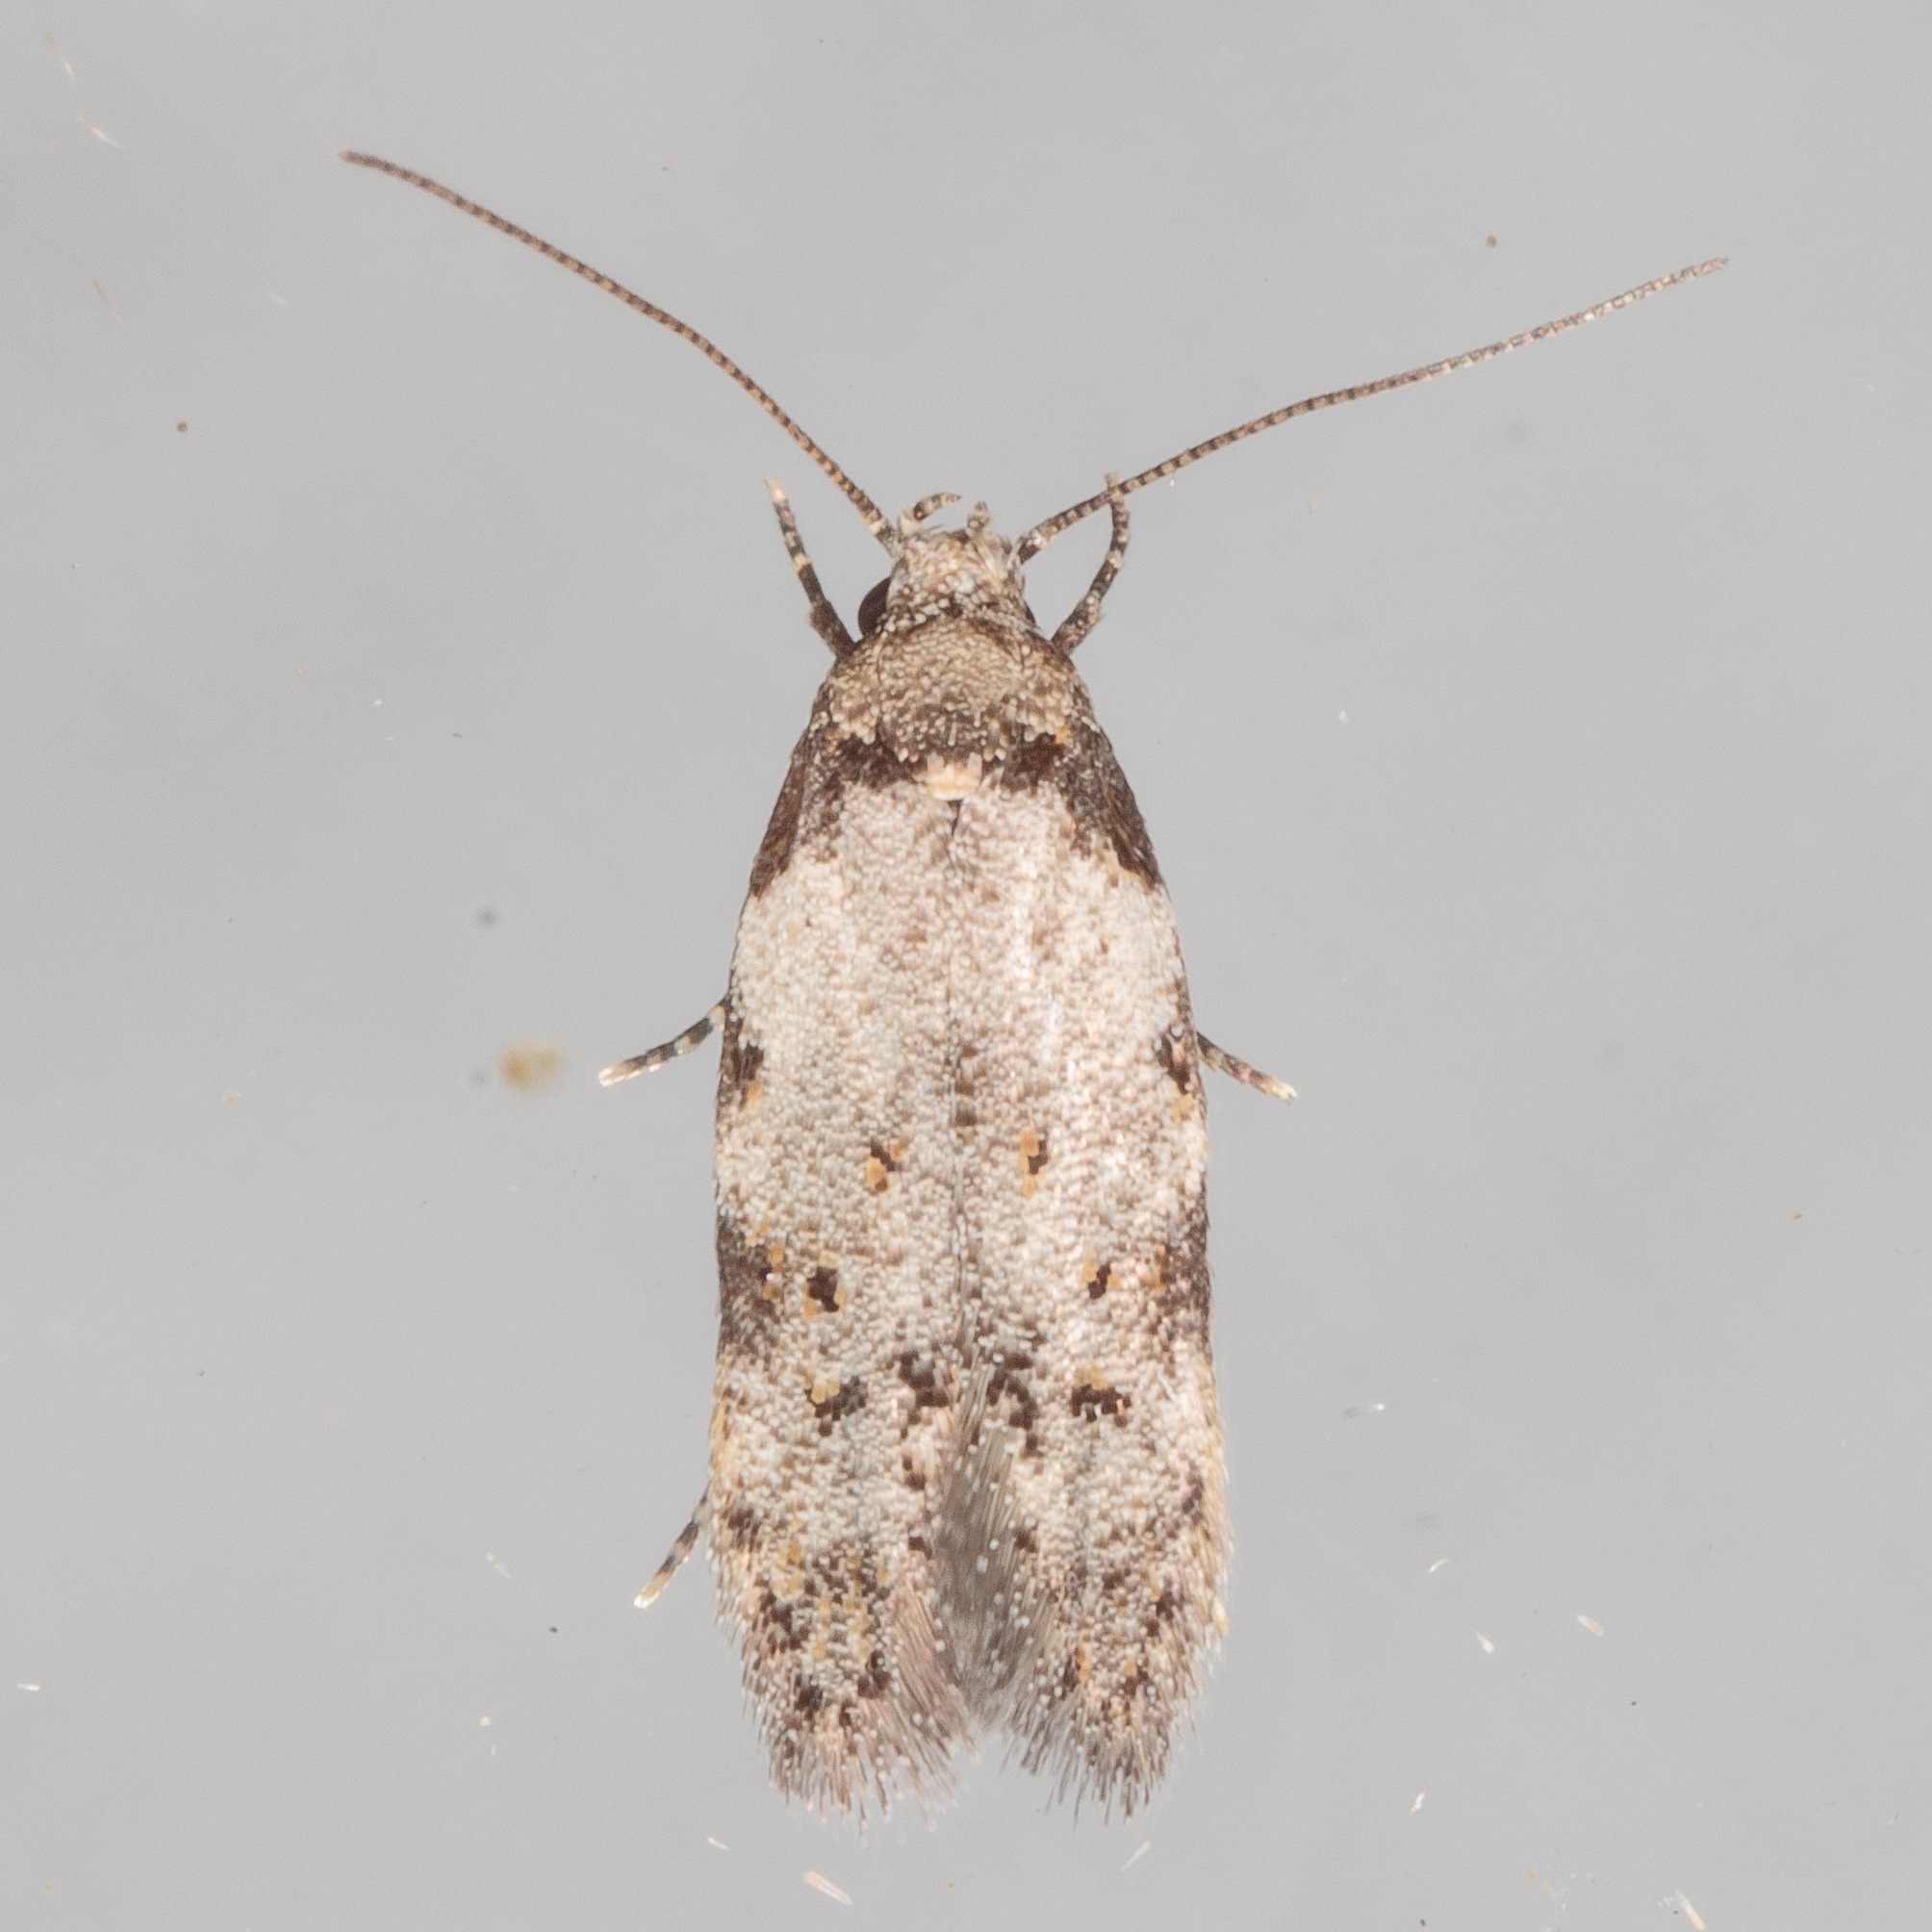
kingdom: Animalia
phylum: Arthropoda
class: Insecta
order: Lepidoptera
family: Autostichidae
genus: Taygete
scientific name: Taygete attributella
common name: Triangle-marked twirler moth
